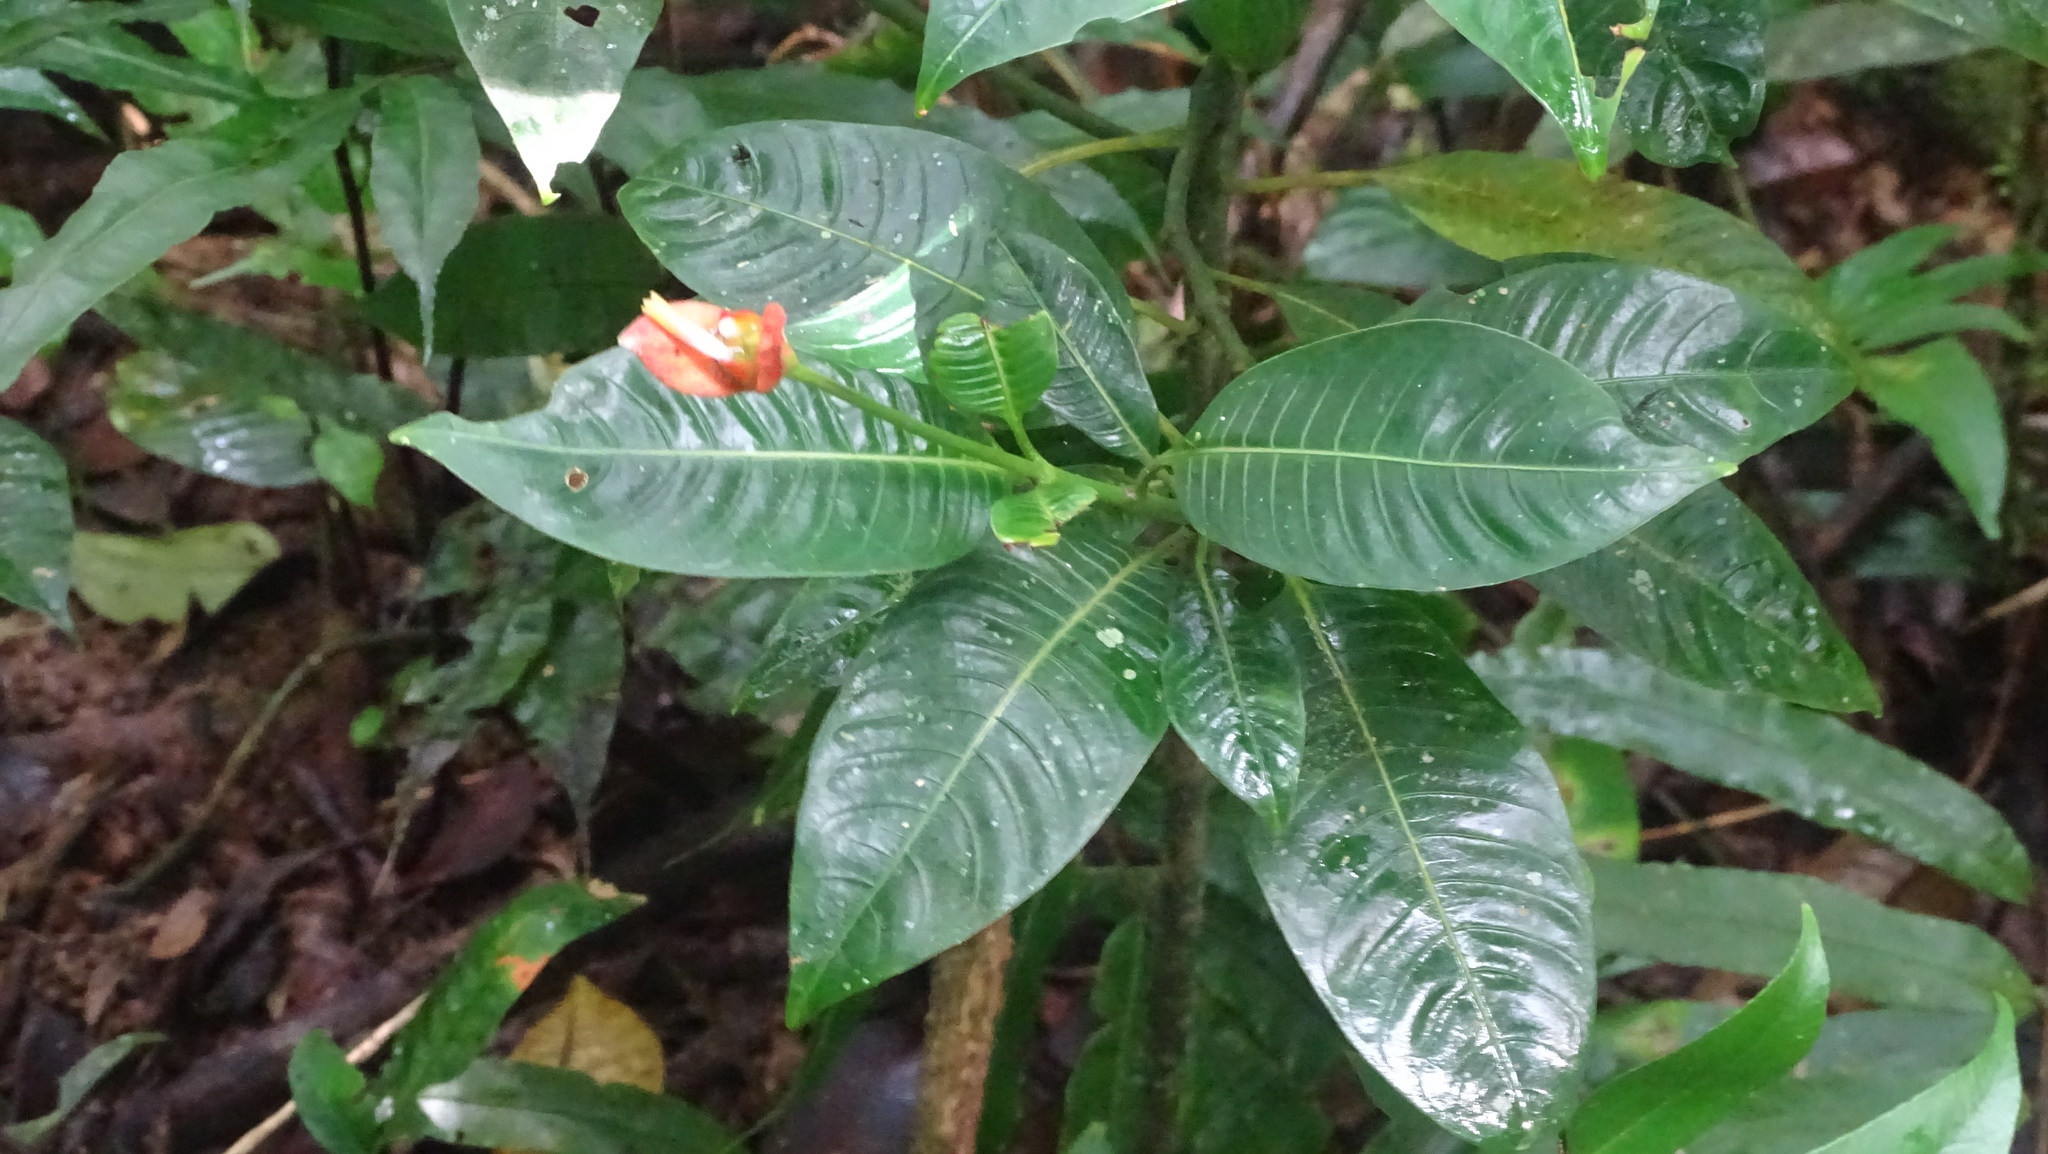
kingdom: Plantae
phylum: Tracheophyta
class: Magnoliopsida
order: Gentianales
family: Rubiaceae
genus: Palicourea
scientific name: Palicourea elata
